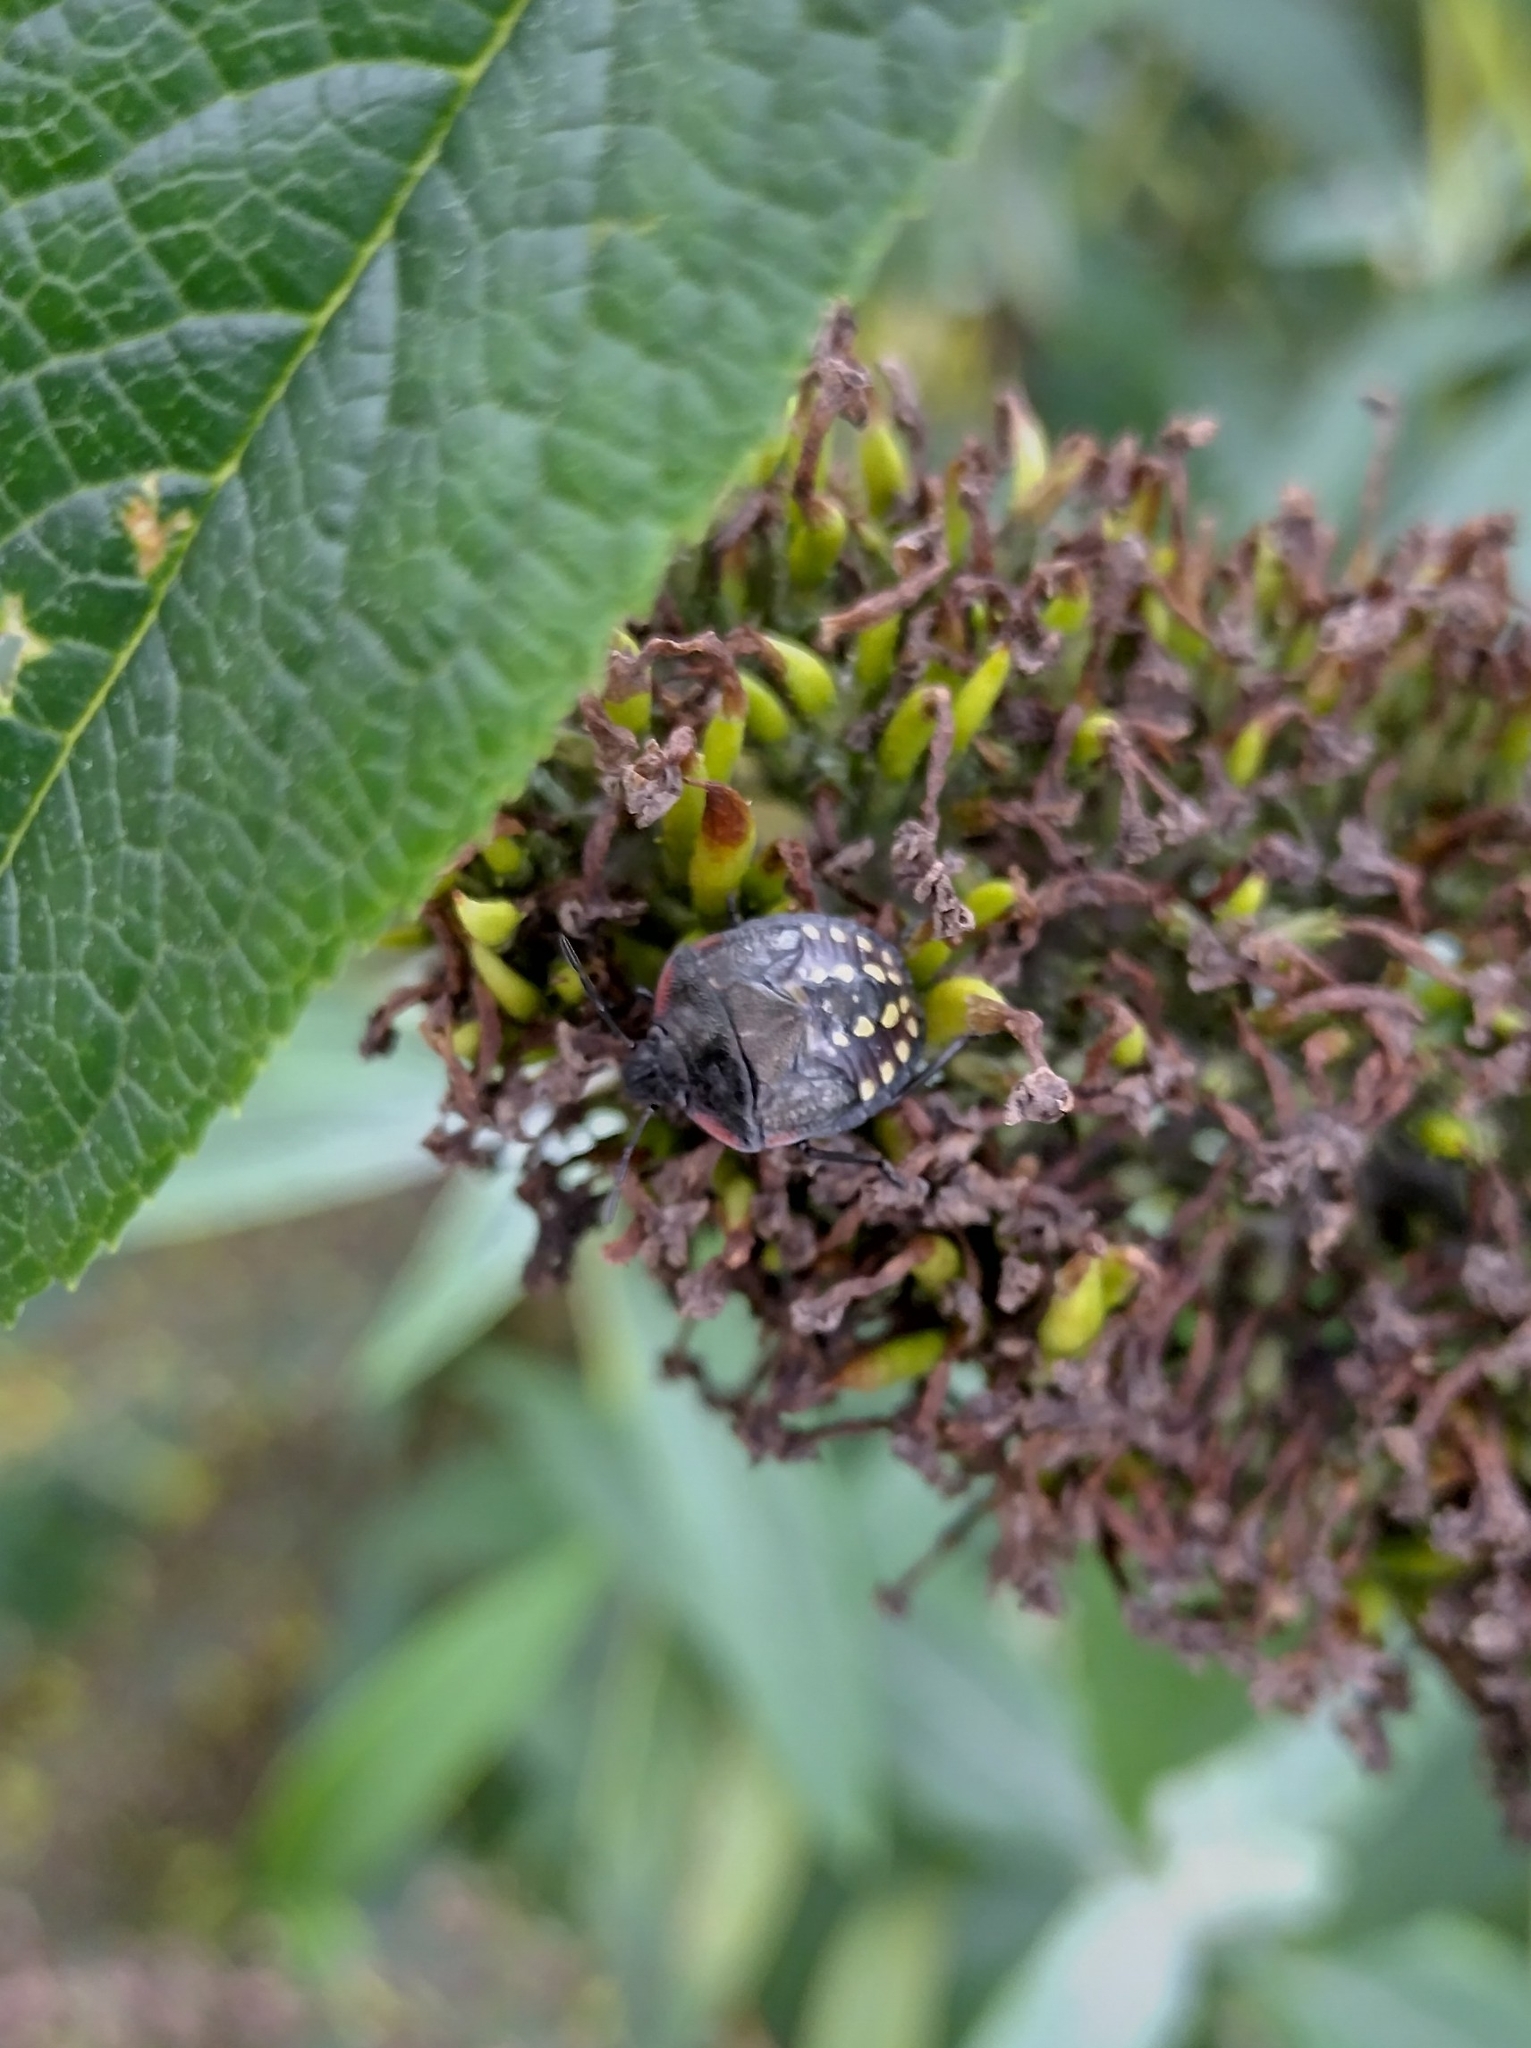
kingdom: Animalia
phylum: Arthropoda
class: Insecta
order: Hemiptera
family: Pentatomidae
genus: Nezara
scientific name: Nezara viridula
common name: Southern green stink bug
